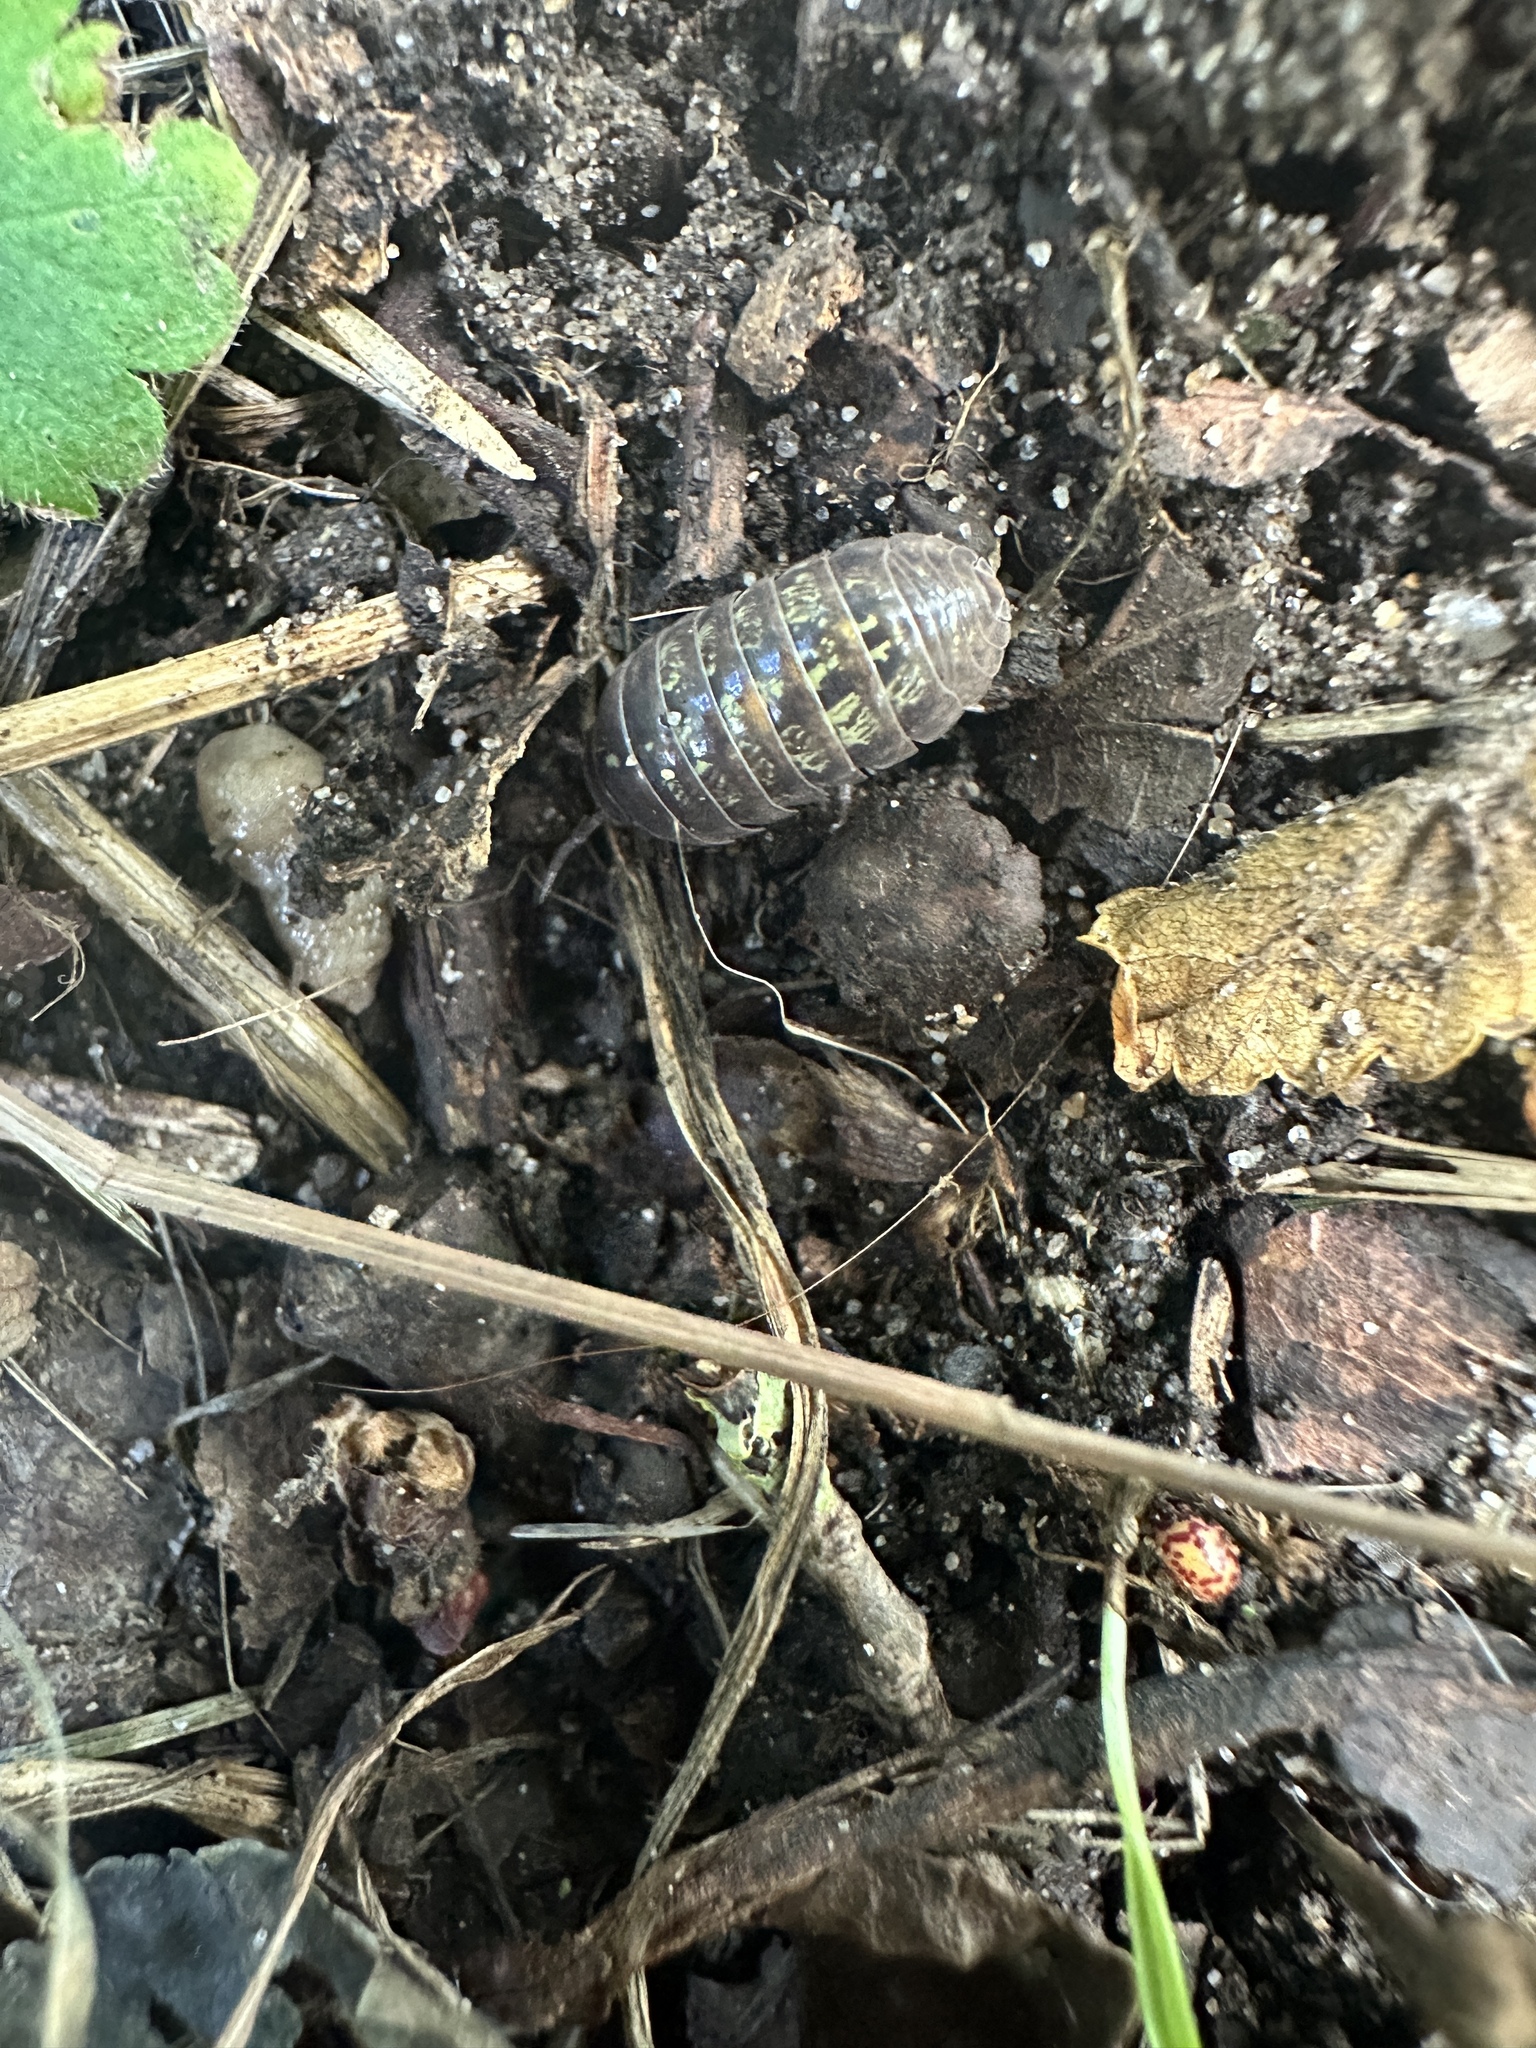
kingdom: Animalia
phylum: Arthropoda
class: Malacostraca
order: Isopoda
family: Armadillidiidae
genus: Armadillidium
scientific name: Armadillidium vulgare
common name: Common pill woodlouse
